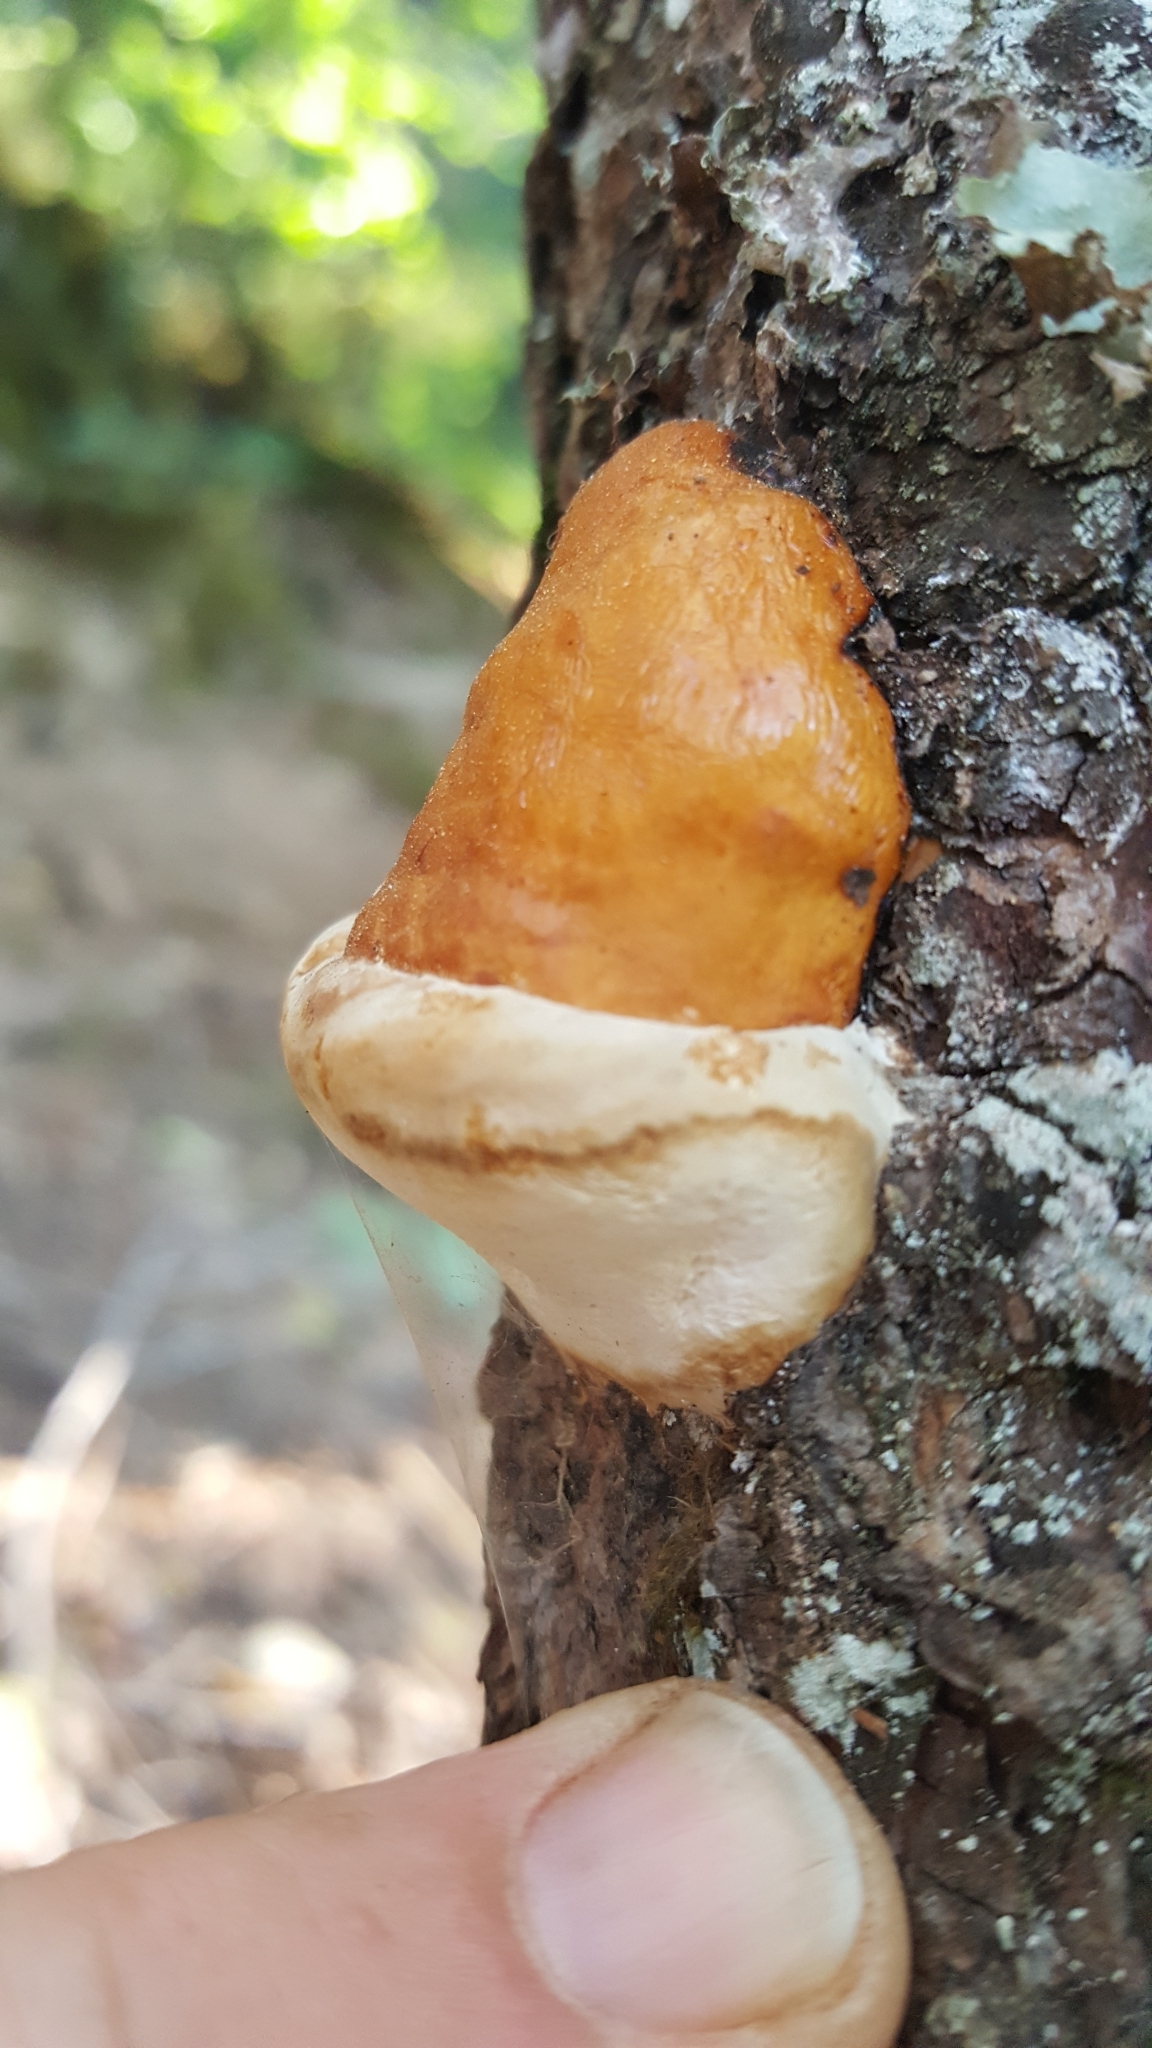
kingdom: Fungi
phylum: Basidiomycota
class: Agaricomycetes
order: Polyporales
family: Fomitopsidaceae
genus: Fomitopsis
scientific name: Fomitopsis mounceae
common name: Northern red belt
